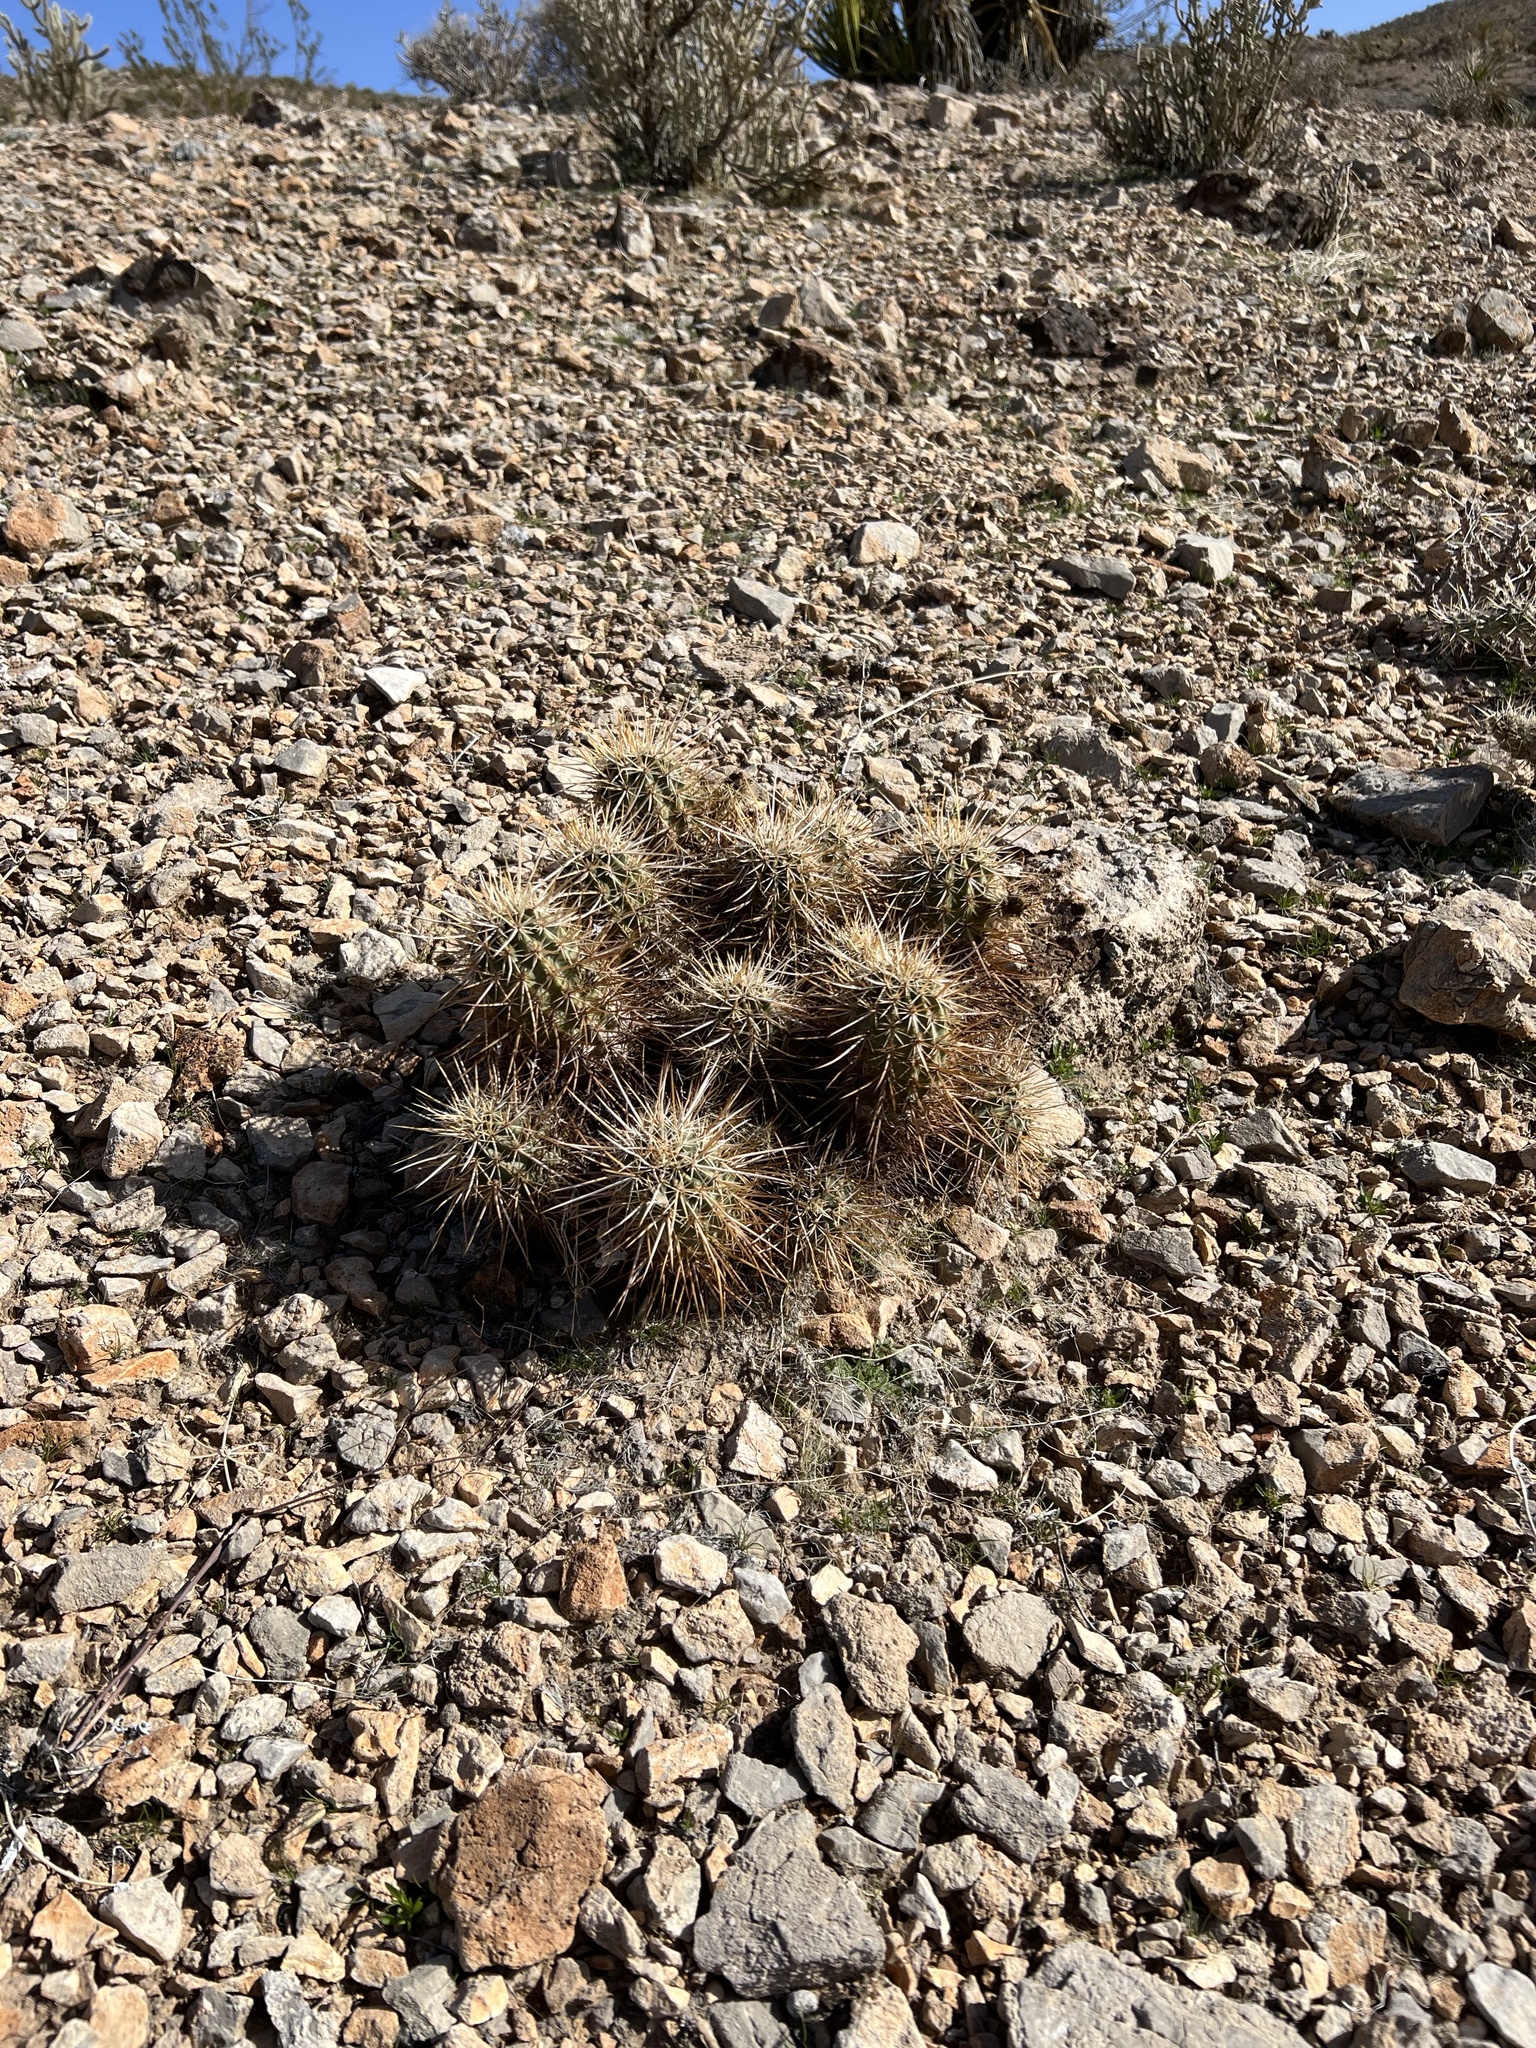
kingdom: Plantae
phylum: Tracheophyta
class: Magnoliopsida
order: Caryophyllales
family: Cactaceae
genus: Echinocereus
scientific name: Echinocereus engelmannii
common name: Engelmann's hedgehog cactus
